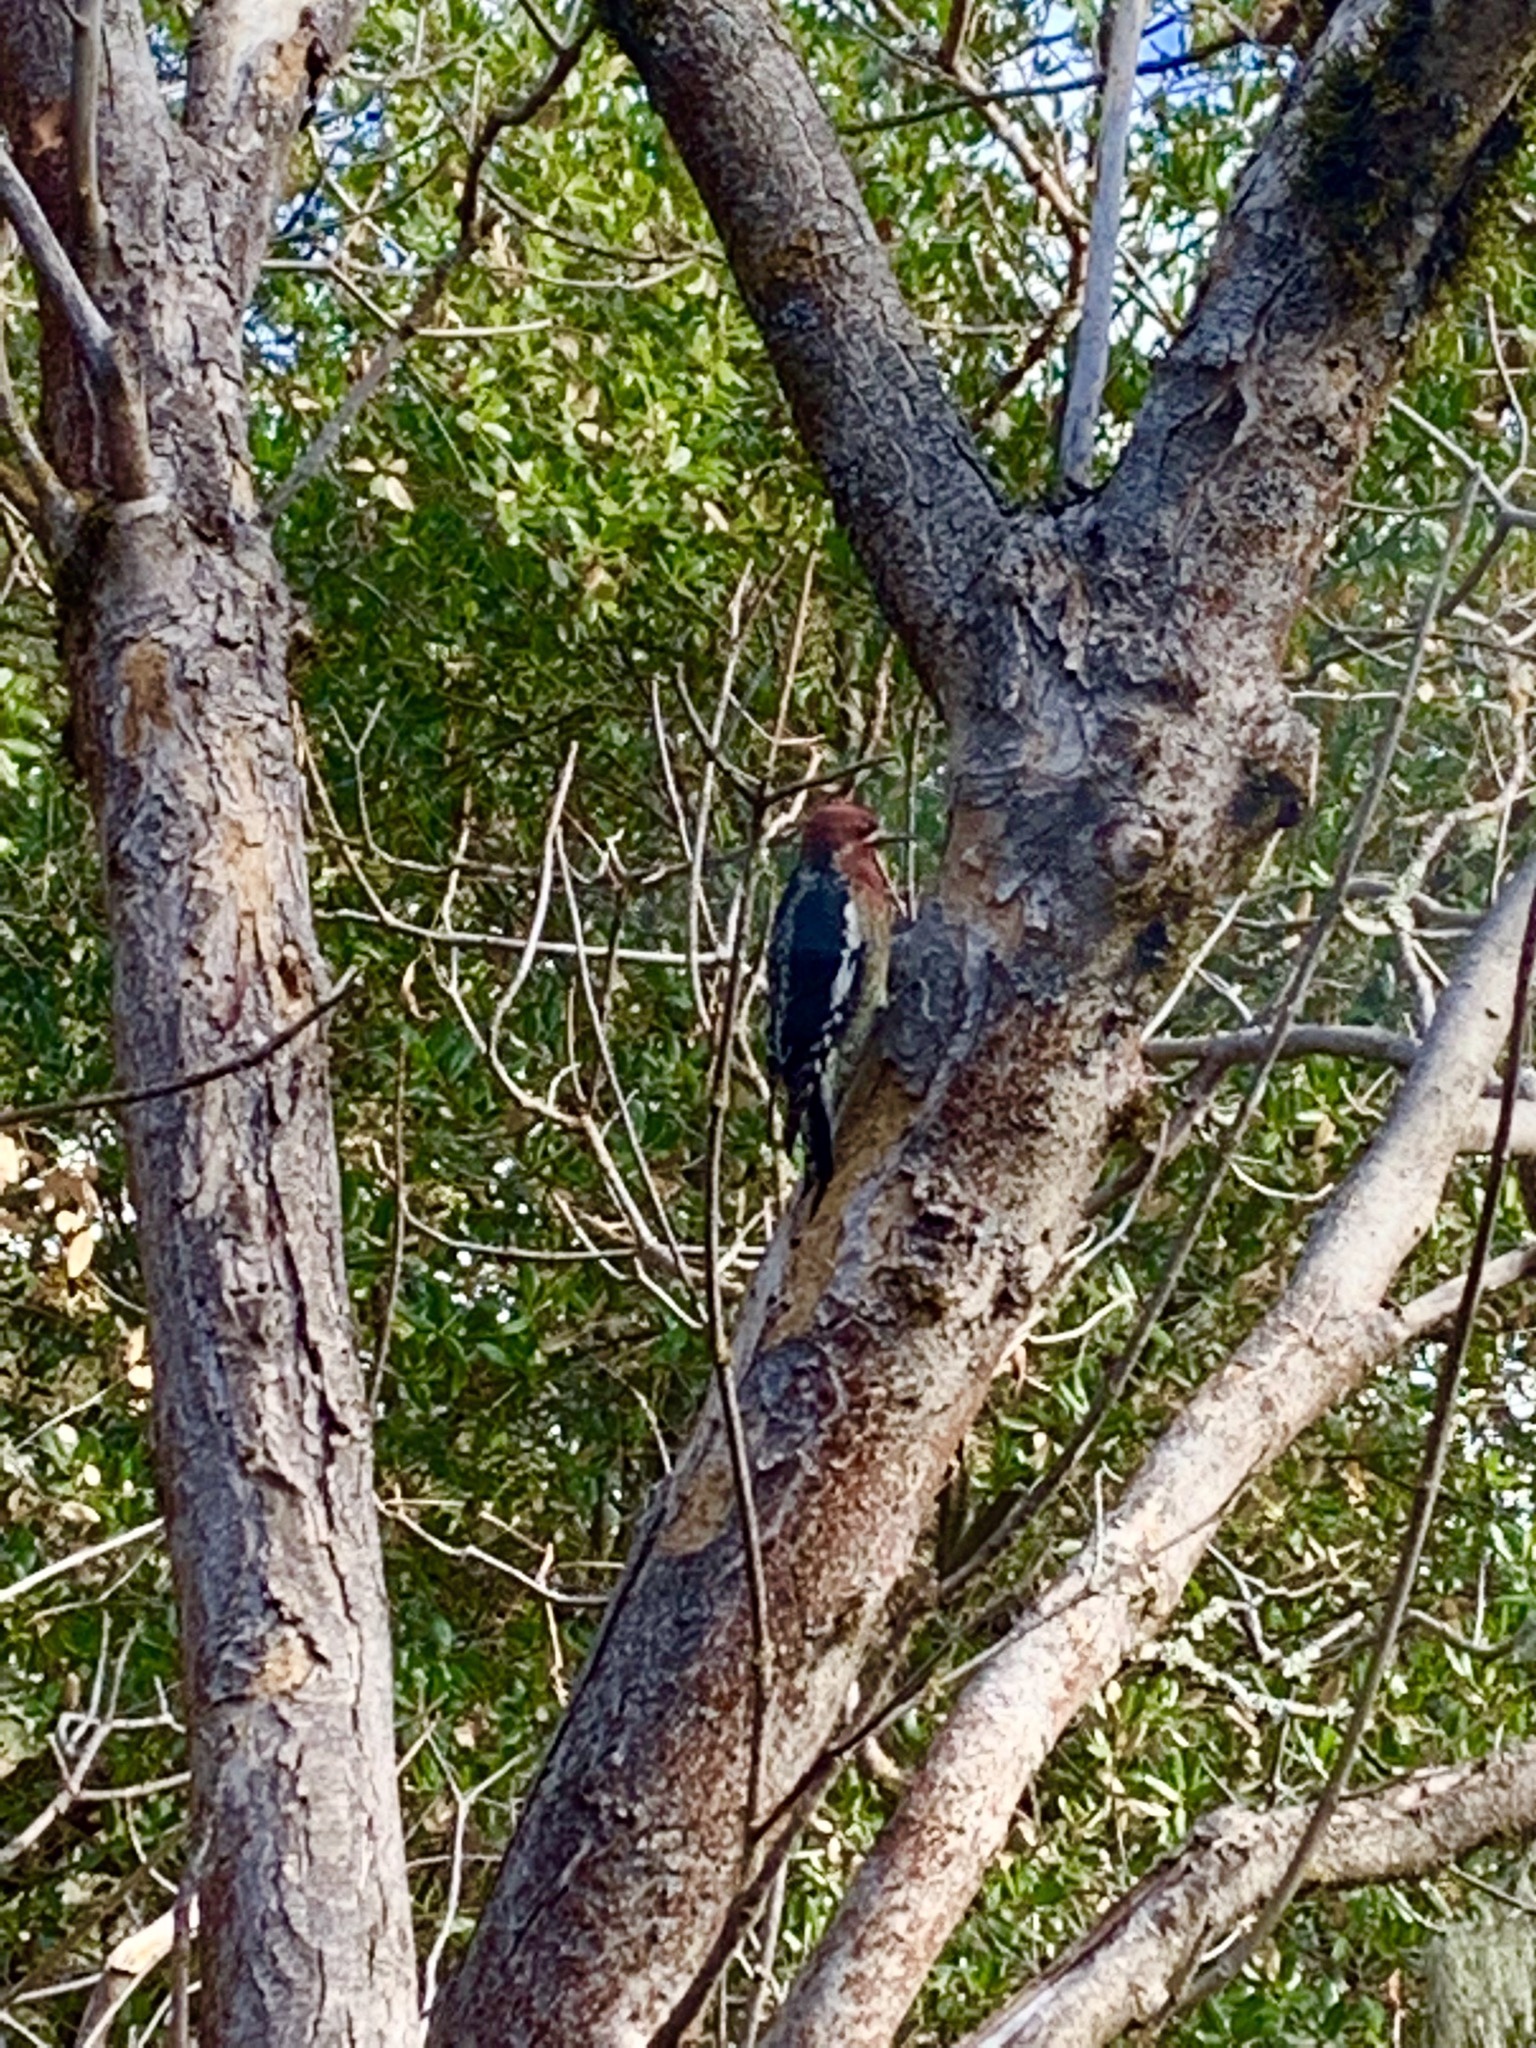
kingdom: Animalia
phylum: Chordata
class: Aves
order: Piciformes
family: Picidae
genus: Sphyrapicus
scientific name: Sphyrapicus ruber
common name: Red-breasted sapsucker
